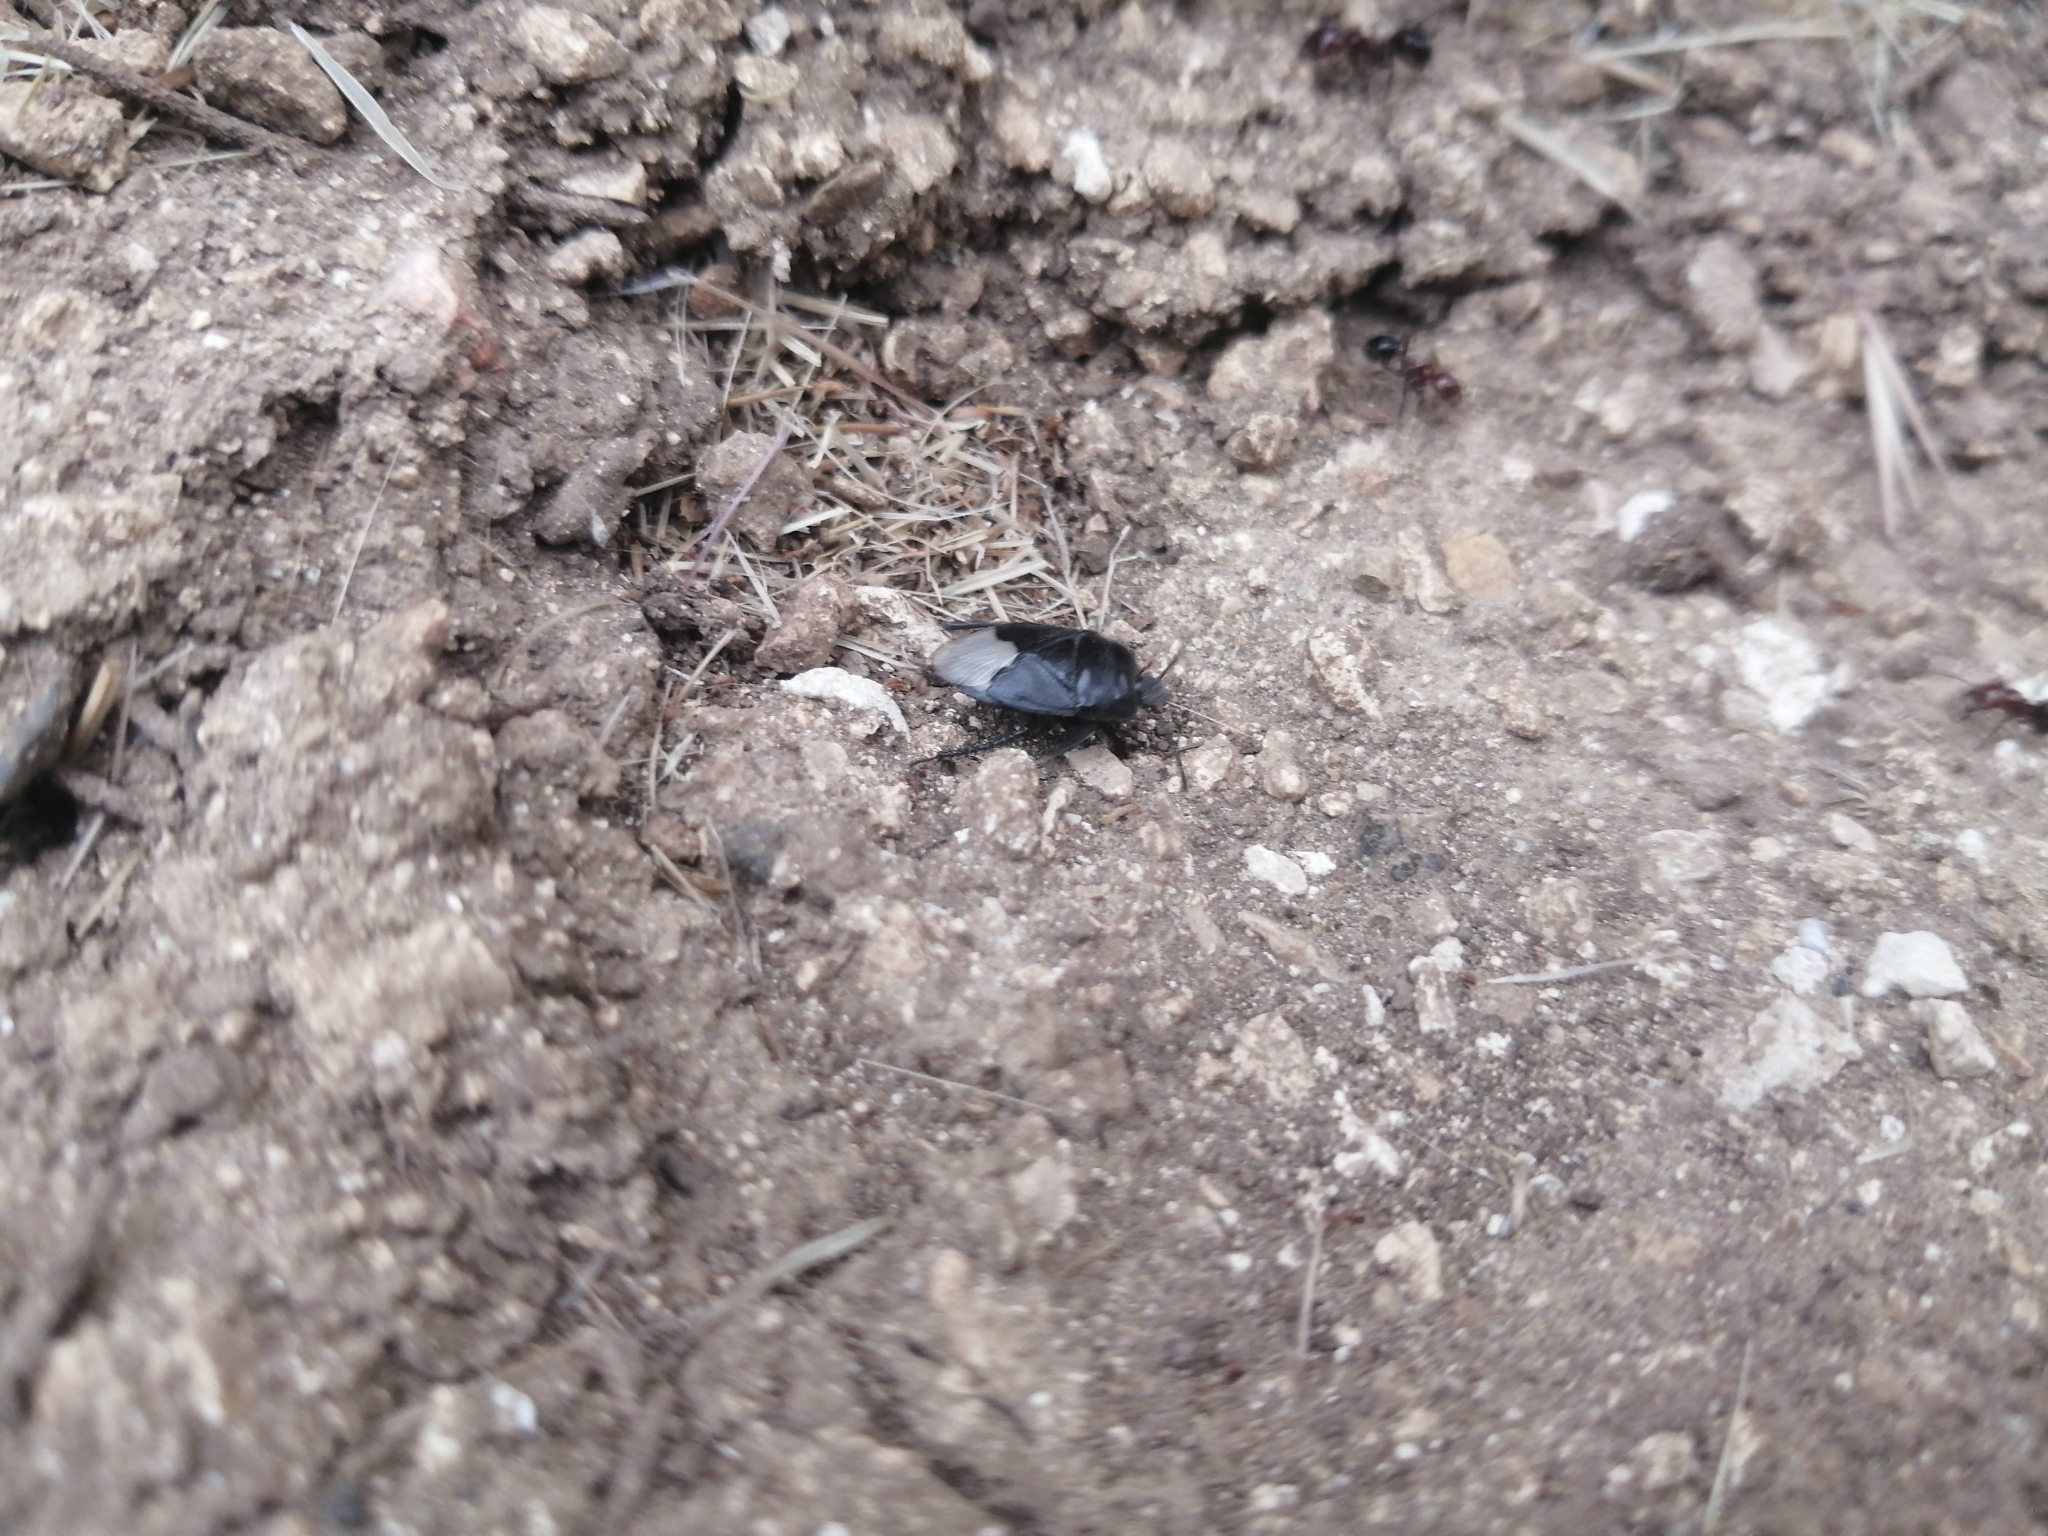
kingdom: Animalia
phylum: Arthropoda
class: Insecta
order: Hemiptera
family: Cydnidae
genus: Cydnus
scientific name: Cydnus aterrimus
